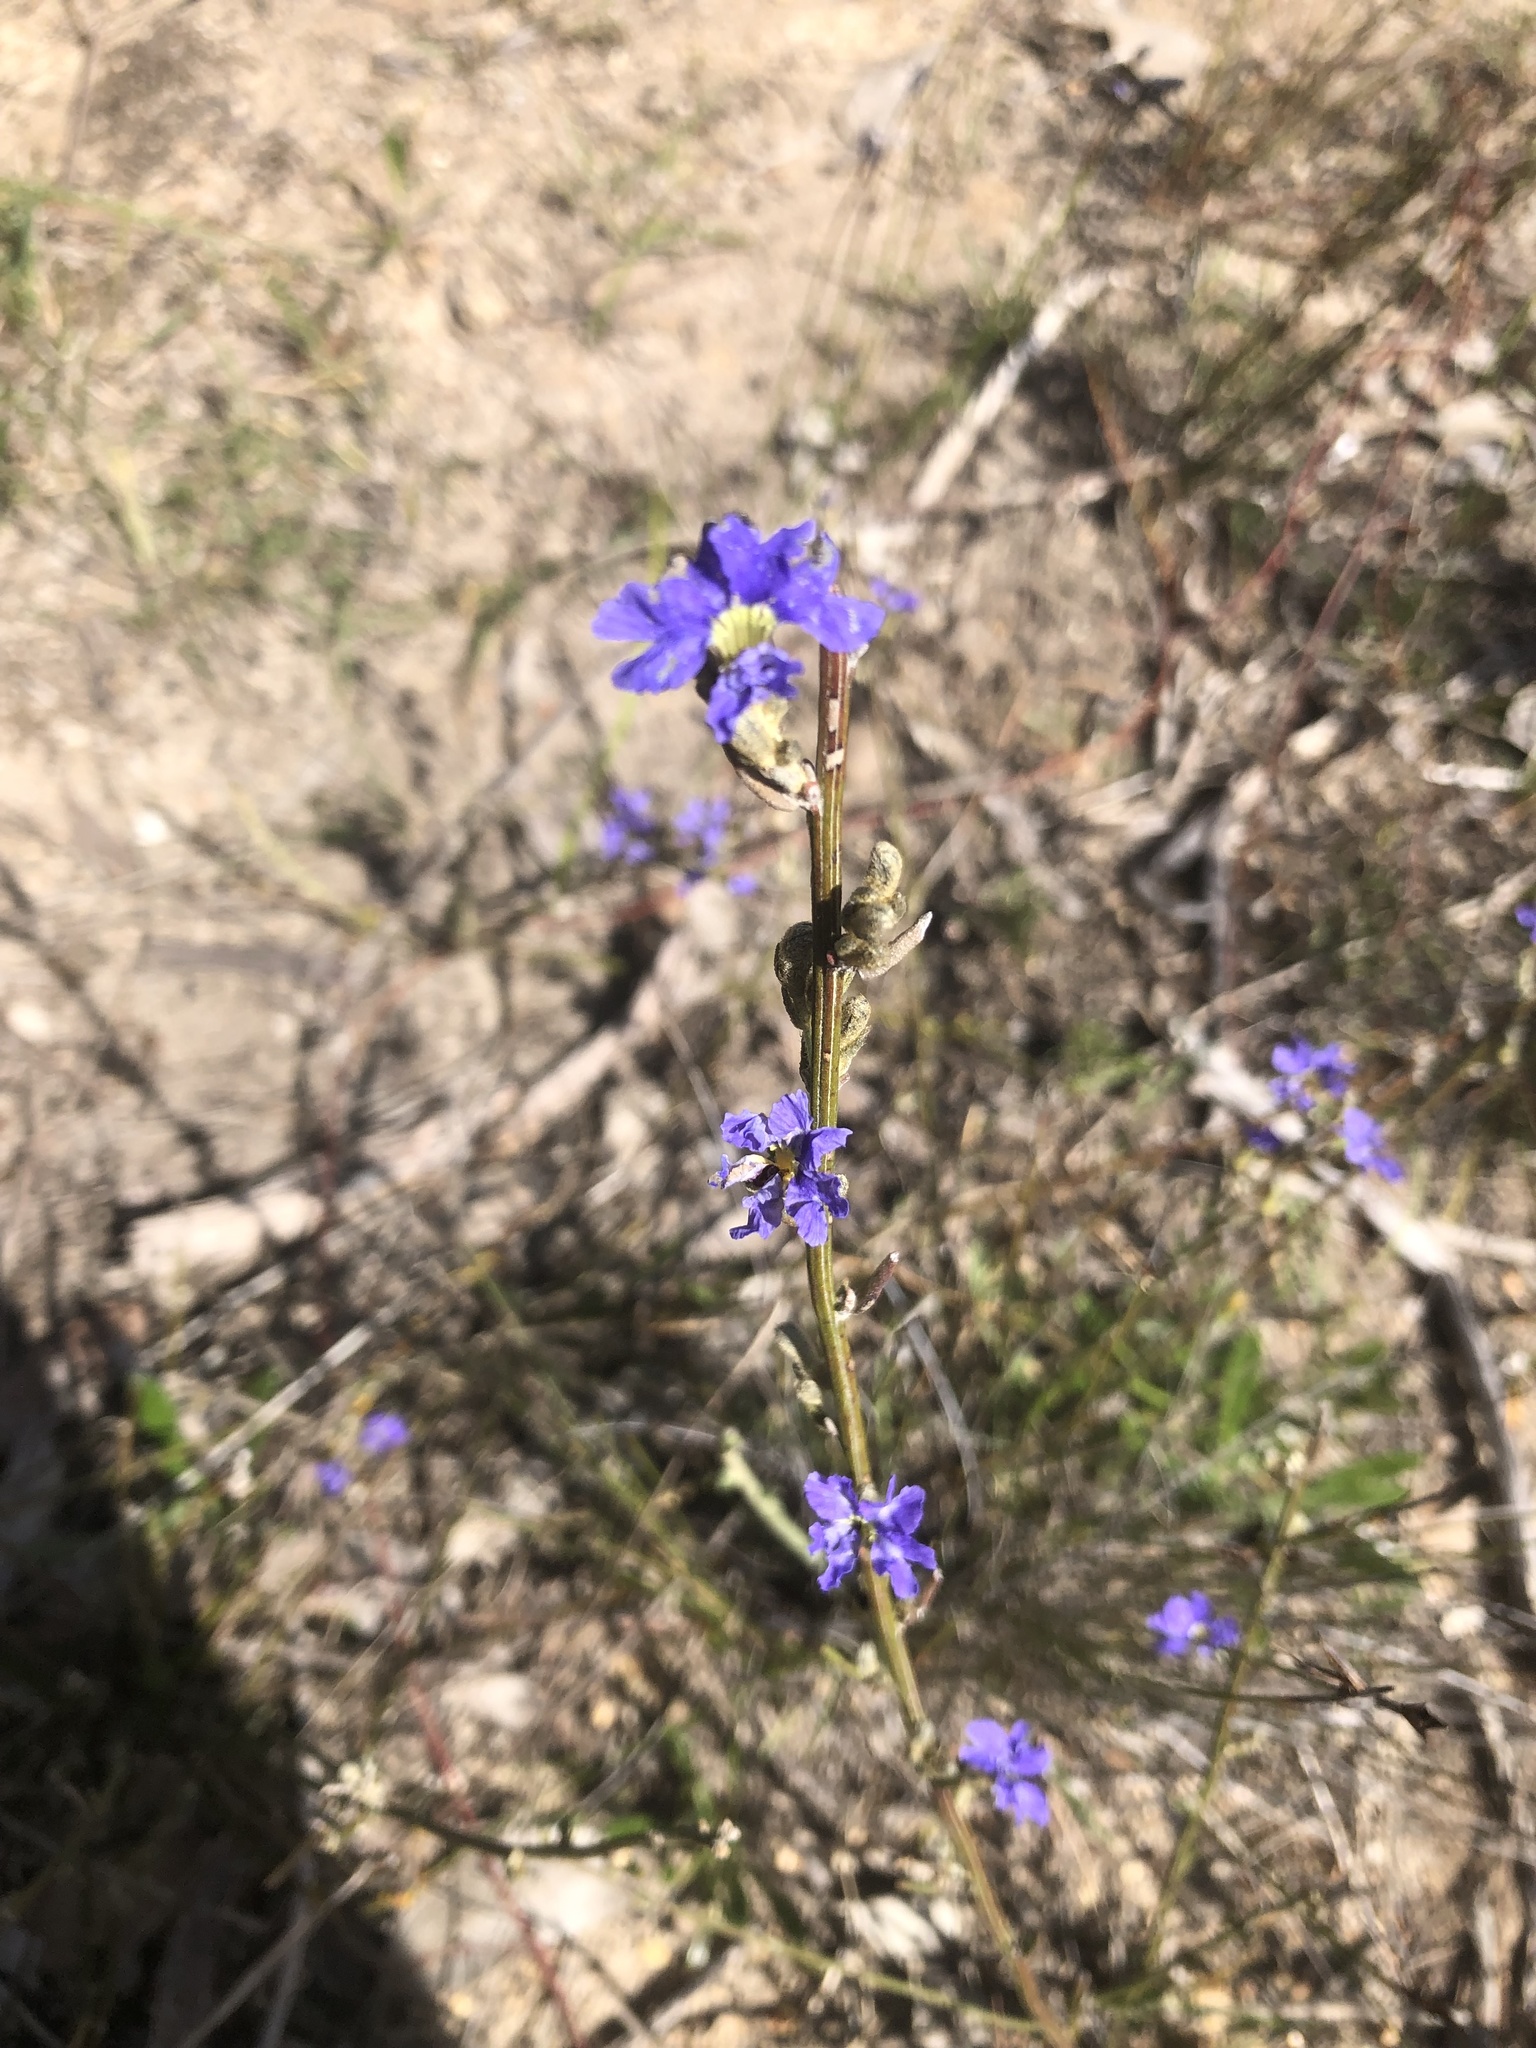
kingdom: Plantae
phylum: Tracheophyta
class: Magnoliopsida
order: Asterales
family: Goodeniaceae
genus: Dampiera
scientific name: Dampiera dysantha
